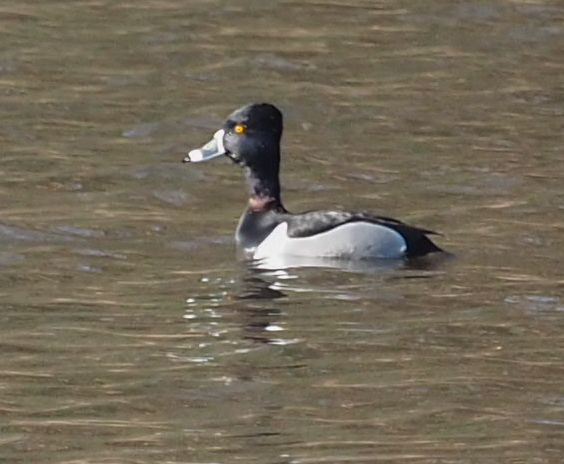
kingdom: Animalia
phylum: Chordata
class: Aves
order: Anseriformes
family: Anatidae
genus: Aythya
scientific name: Aythya collaris
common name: Ring-necked duck
